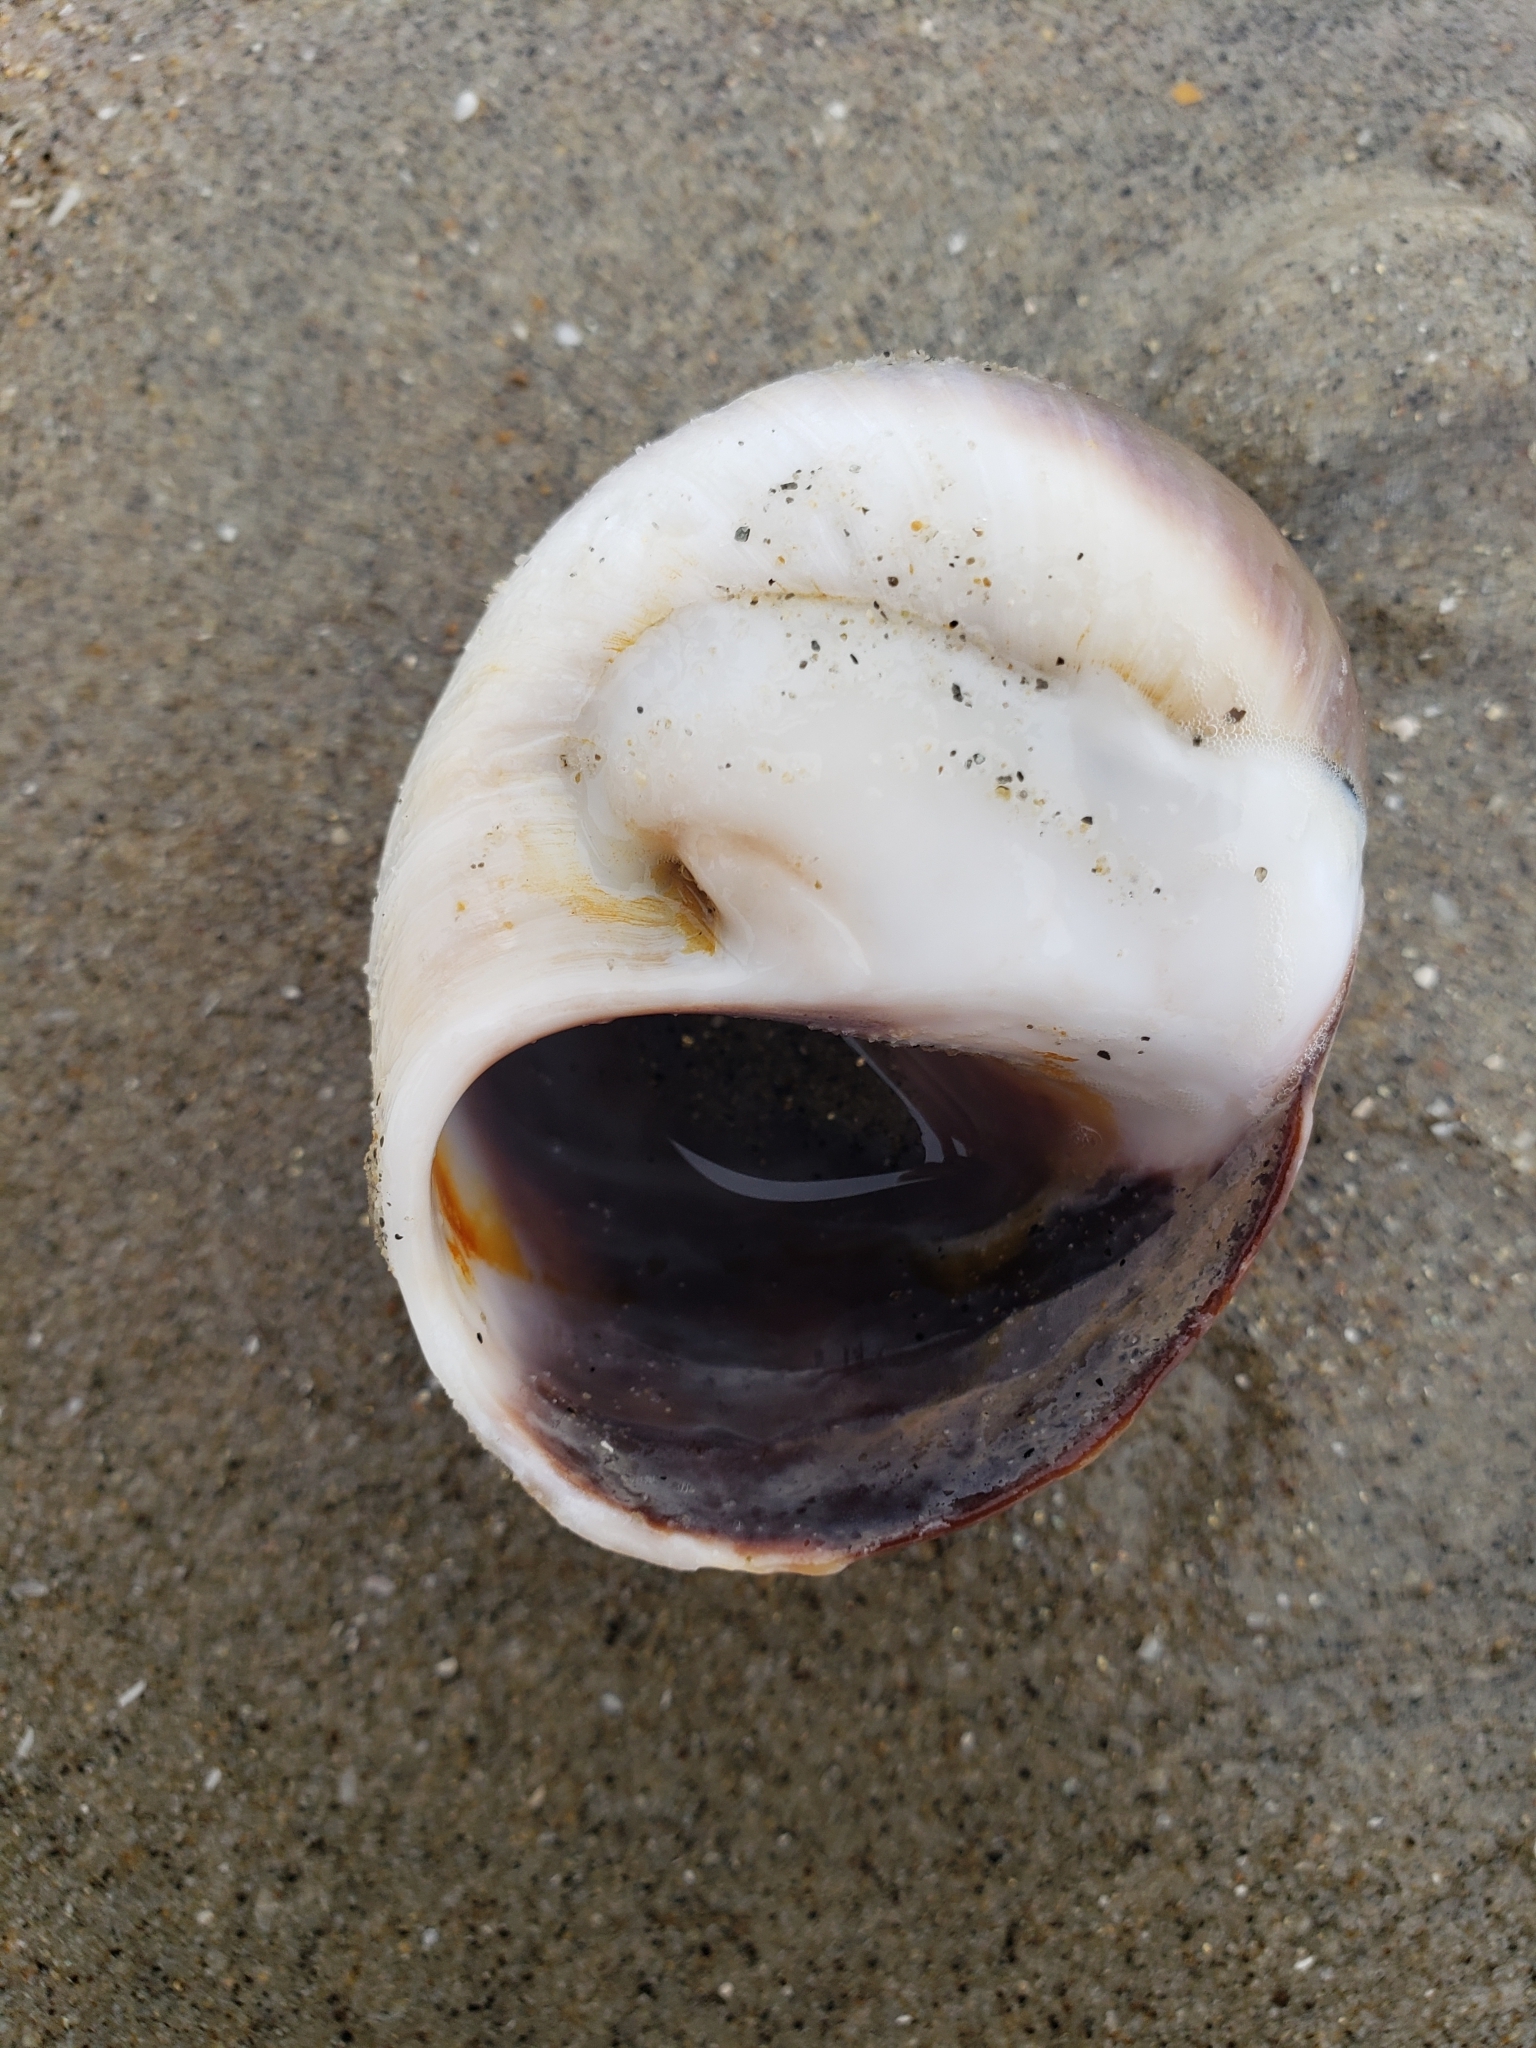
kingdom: Animalia
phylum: Mollusca
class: Gastropoda
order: Littorinimorpha
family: Naticidae
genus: Glossaulax
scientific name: Glossaulax reclusiana
